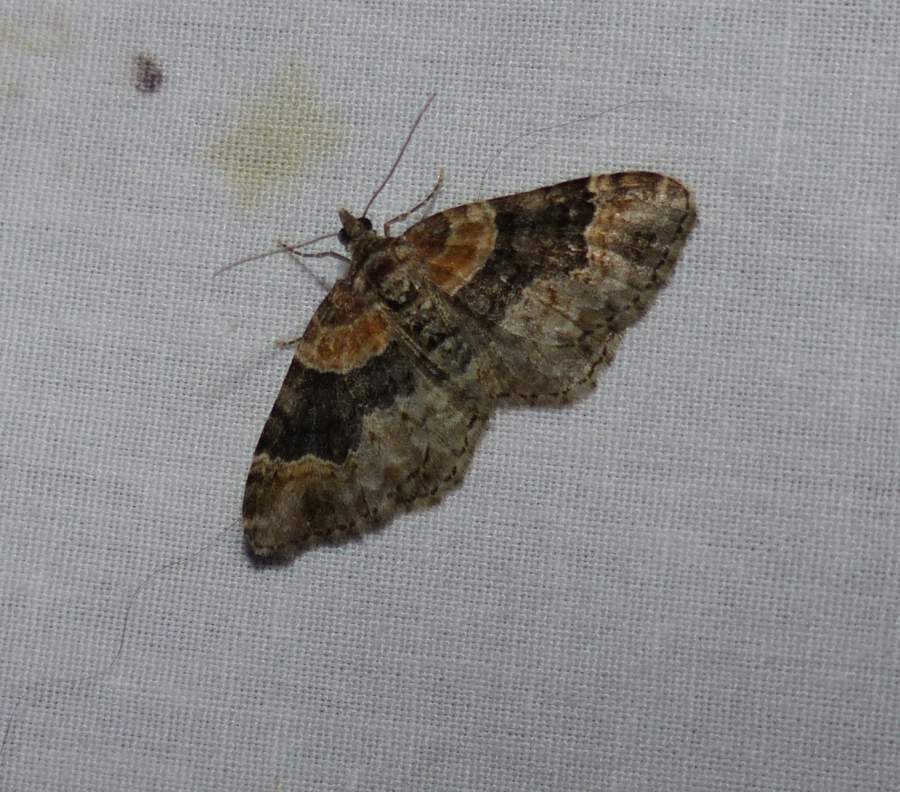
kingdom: Animalia
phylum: Arthropoda
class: Insecta
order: Lepidoptera
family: Geometridae
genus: Xanthorhoe
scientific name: Xanthorhoe ferrugata
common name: Dark-barred twin-spot carpet
